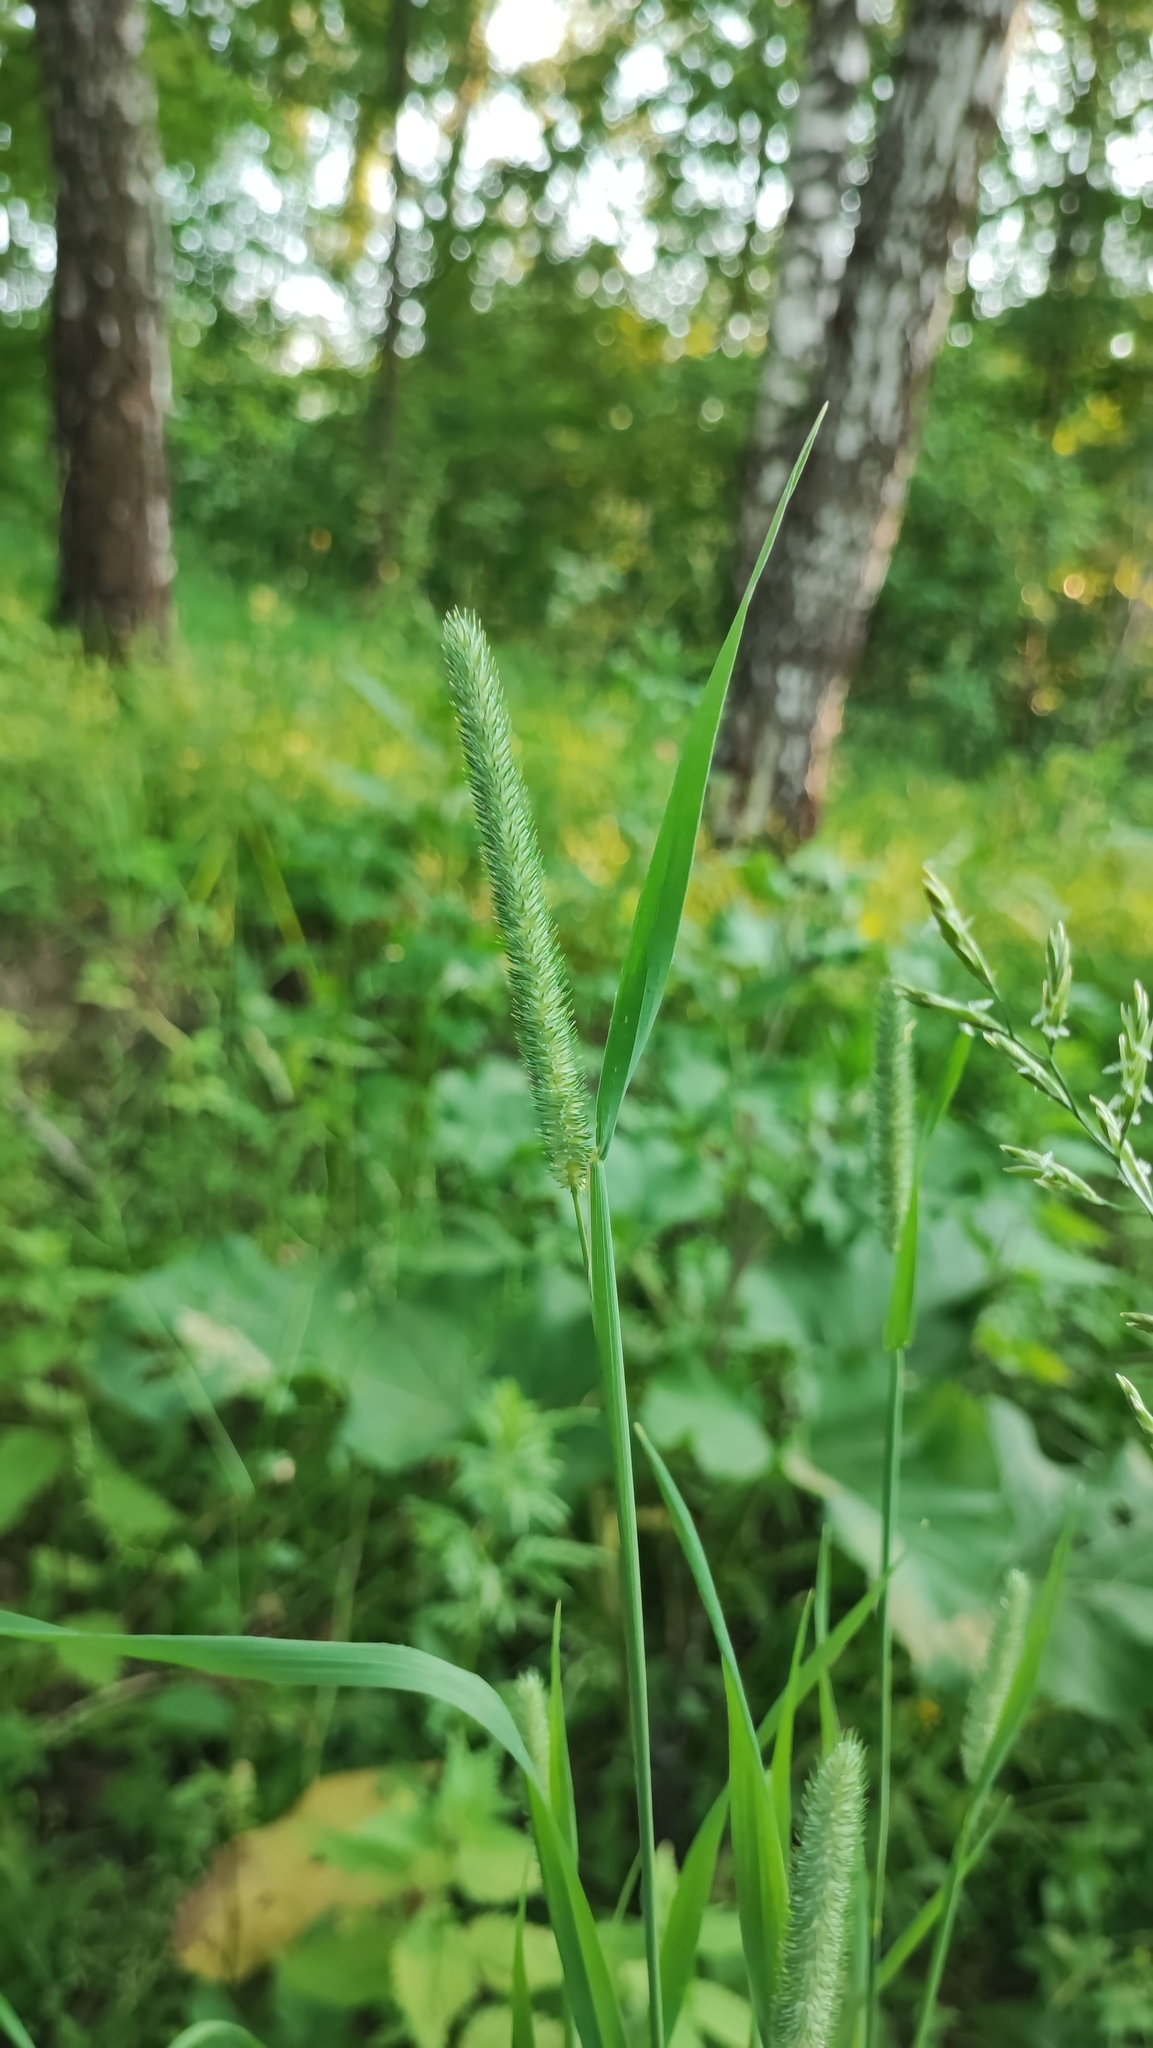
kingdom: Plantae
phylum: Tracheophyta
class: Liliopsida
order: Poales
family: Poaceae
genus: Phleum
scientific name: Phleum pratense
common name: Timothy grass
